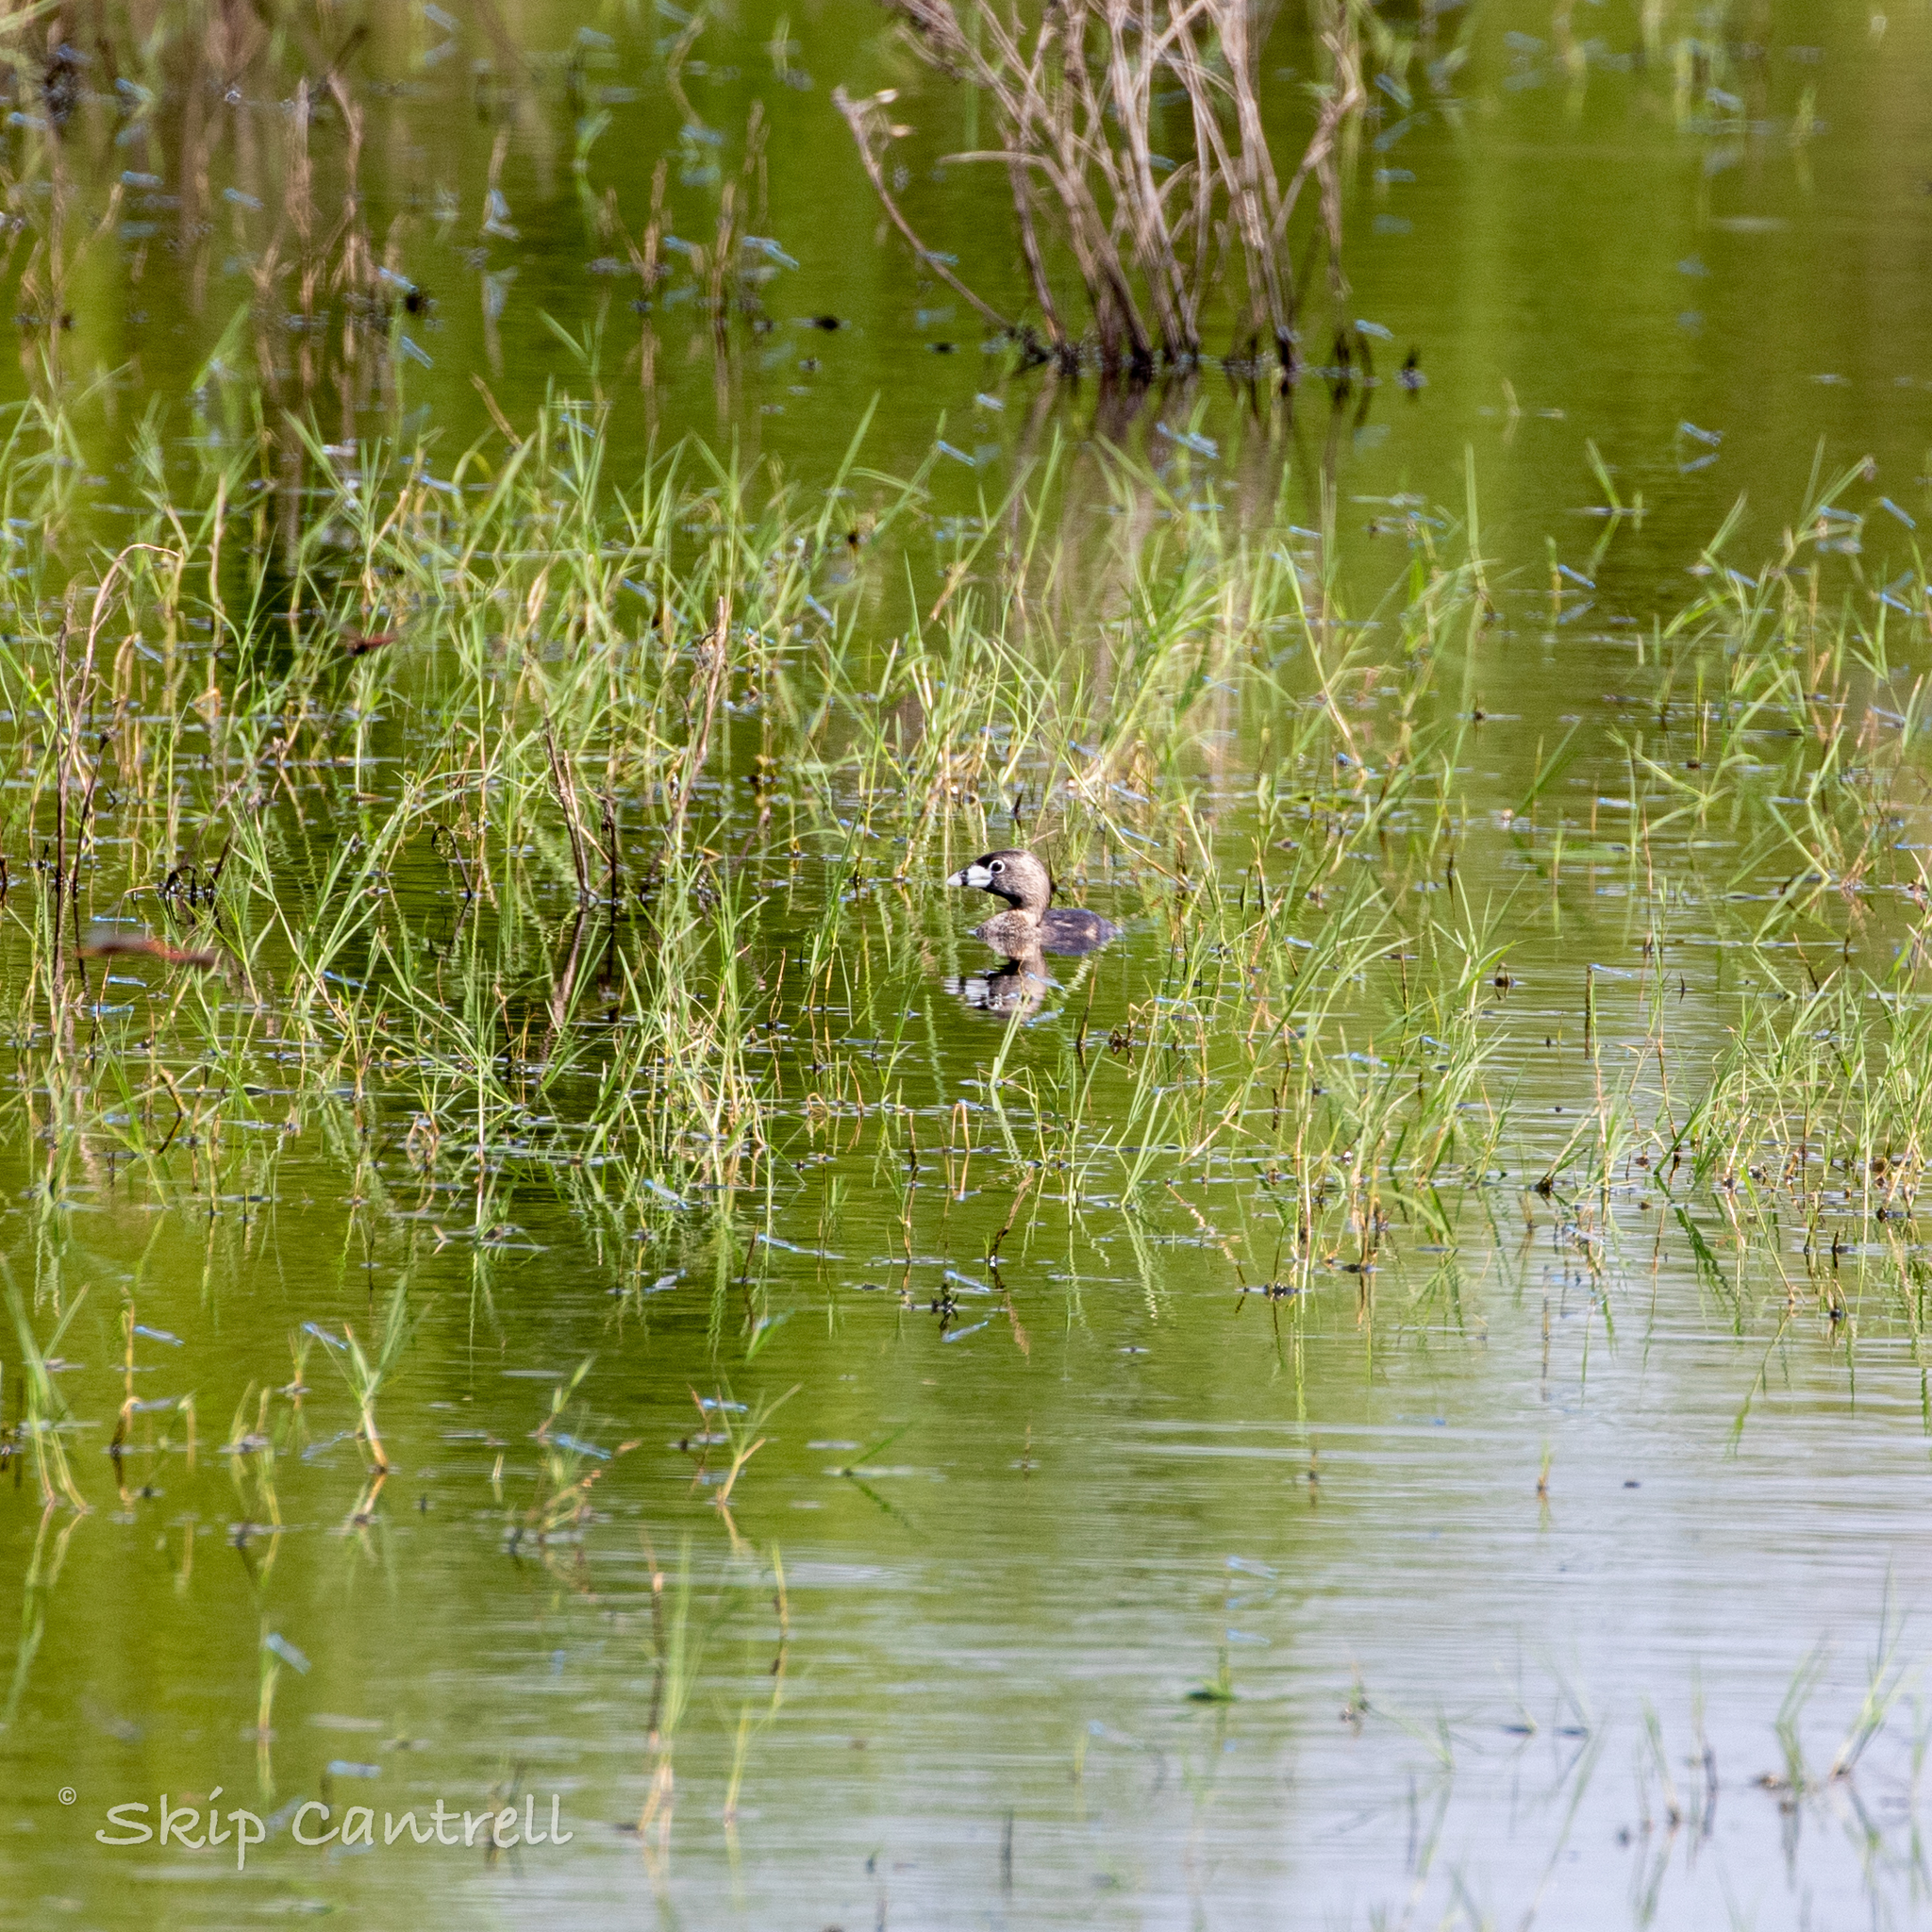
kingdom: Animalia
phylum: Chordata
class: Aves
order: Podicipediformes
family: Podicipedidae
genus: Podilymbus
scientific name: Podilymbus podiceps
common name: Pied-billed grebe
